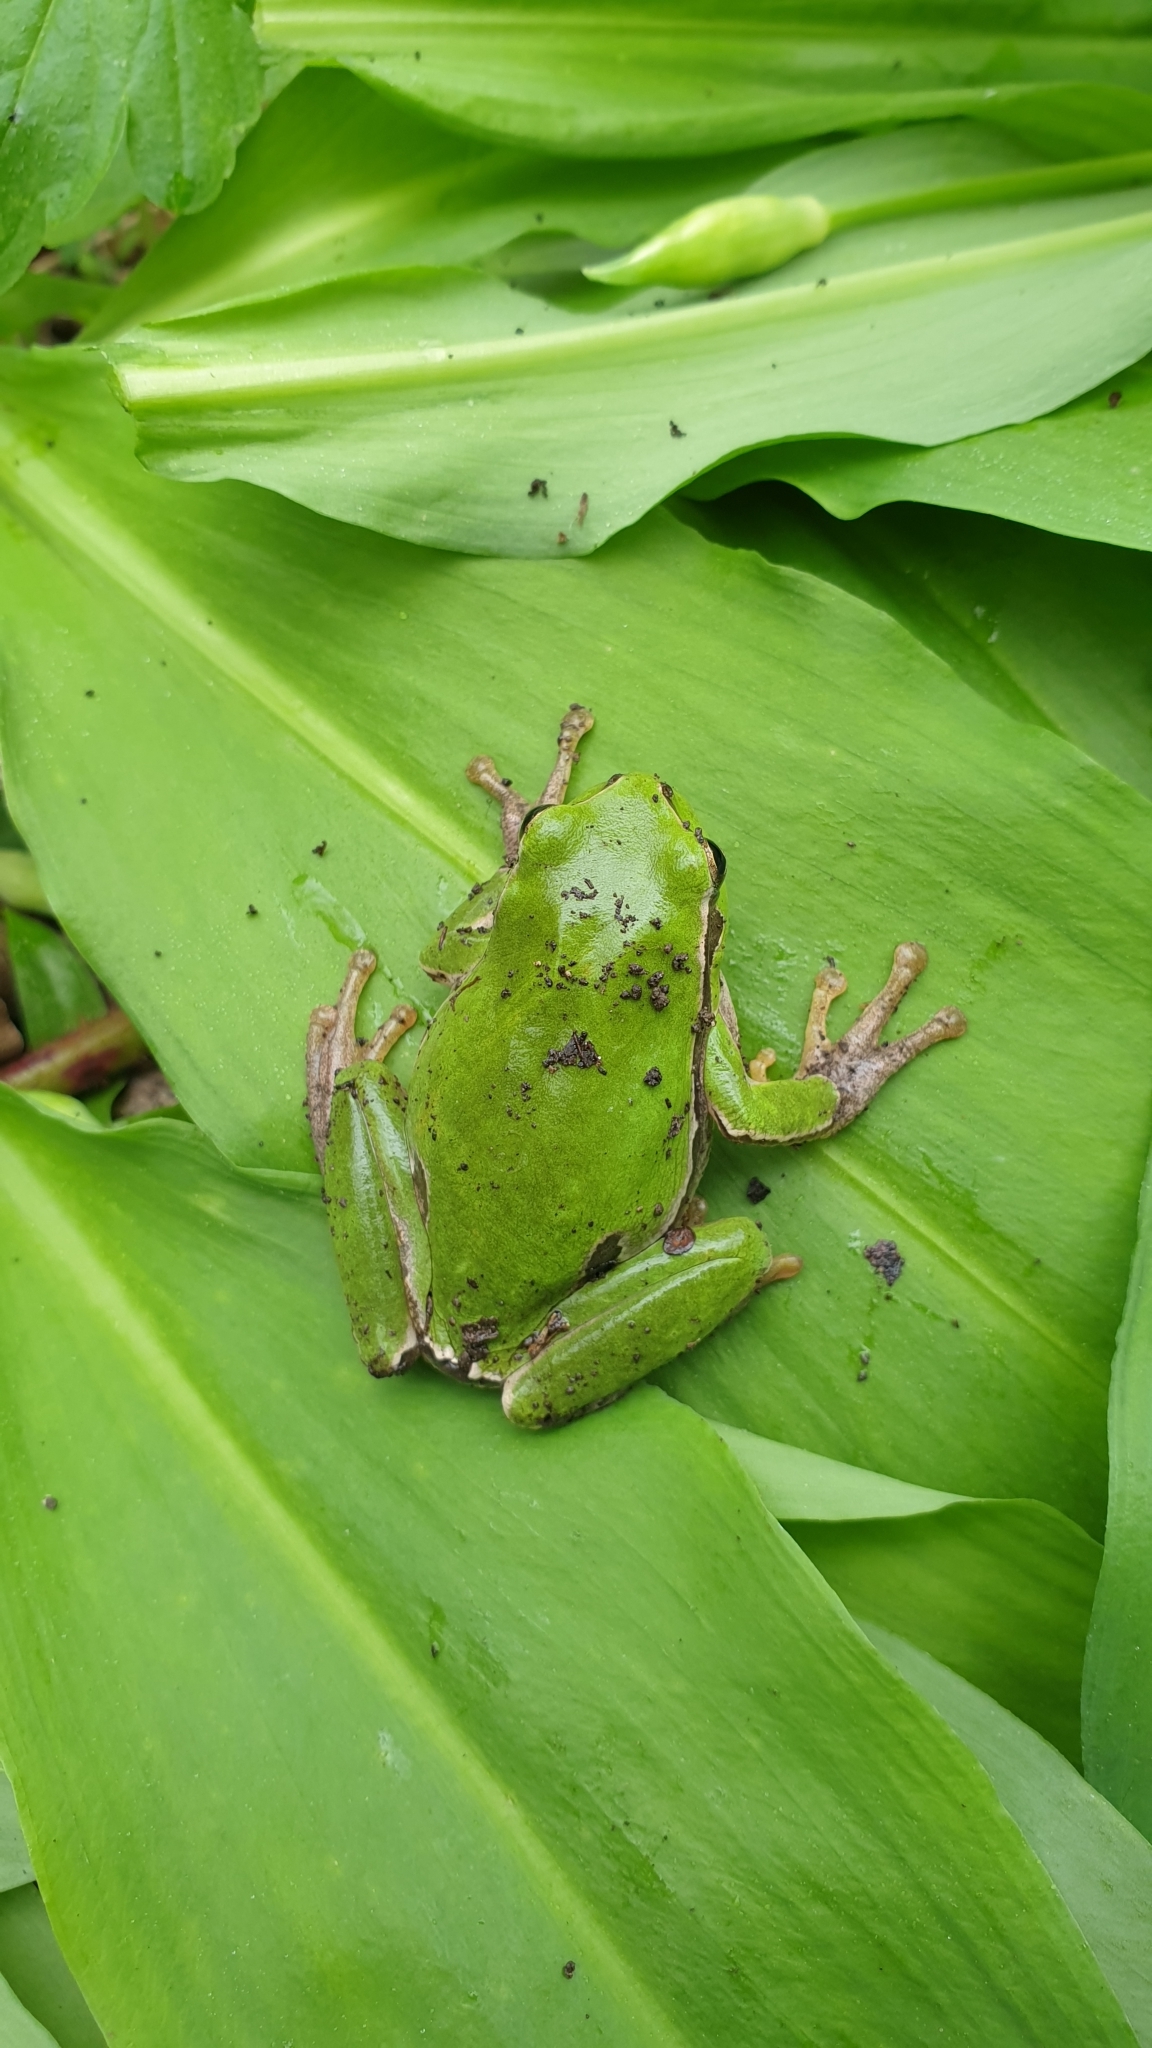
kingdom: Animalia
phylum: Chordata
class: Amphibia
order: Anura
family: Hylidae
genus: Hyla
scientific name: Hyla orientalis
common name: Caucasian treefrog
